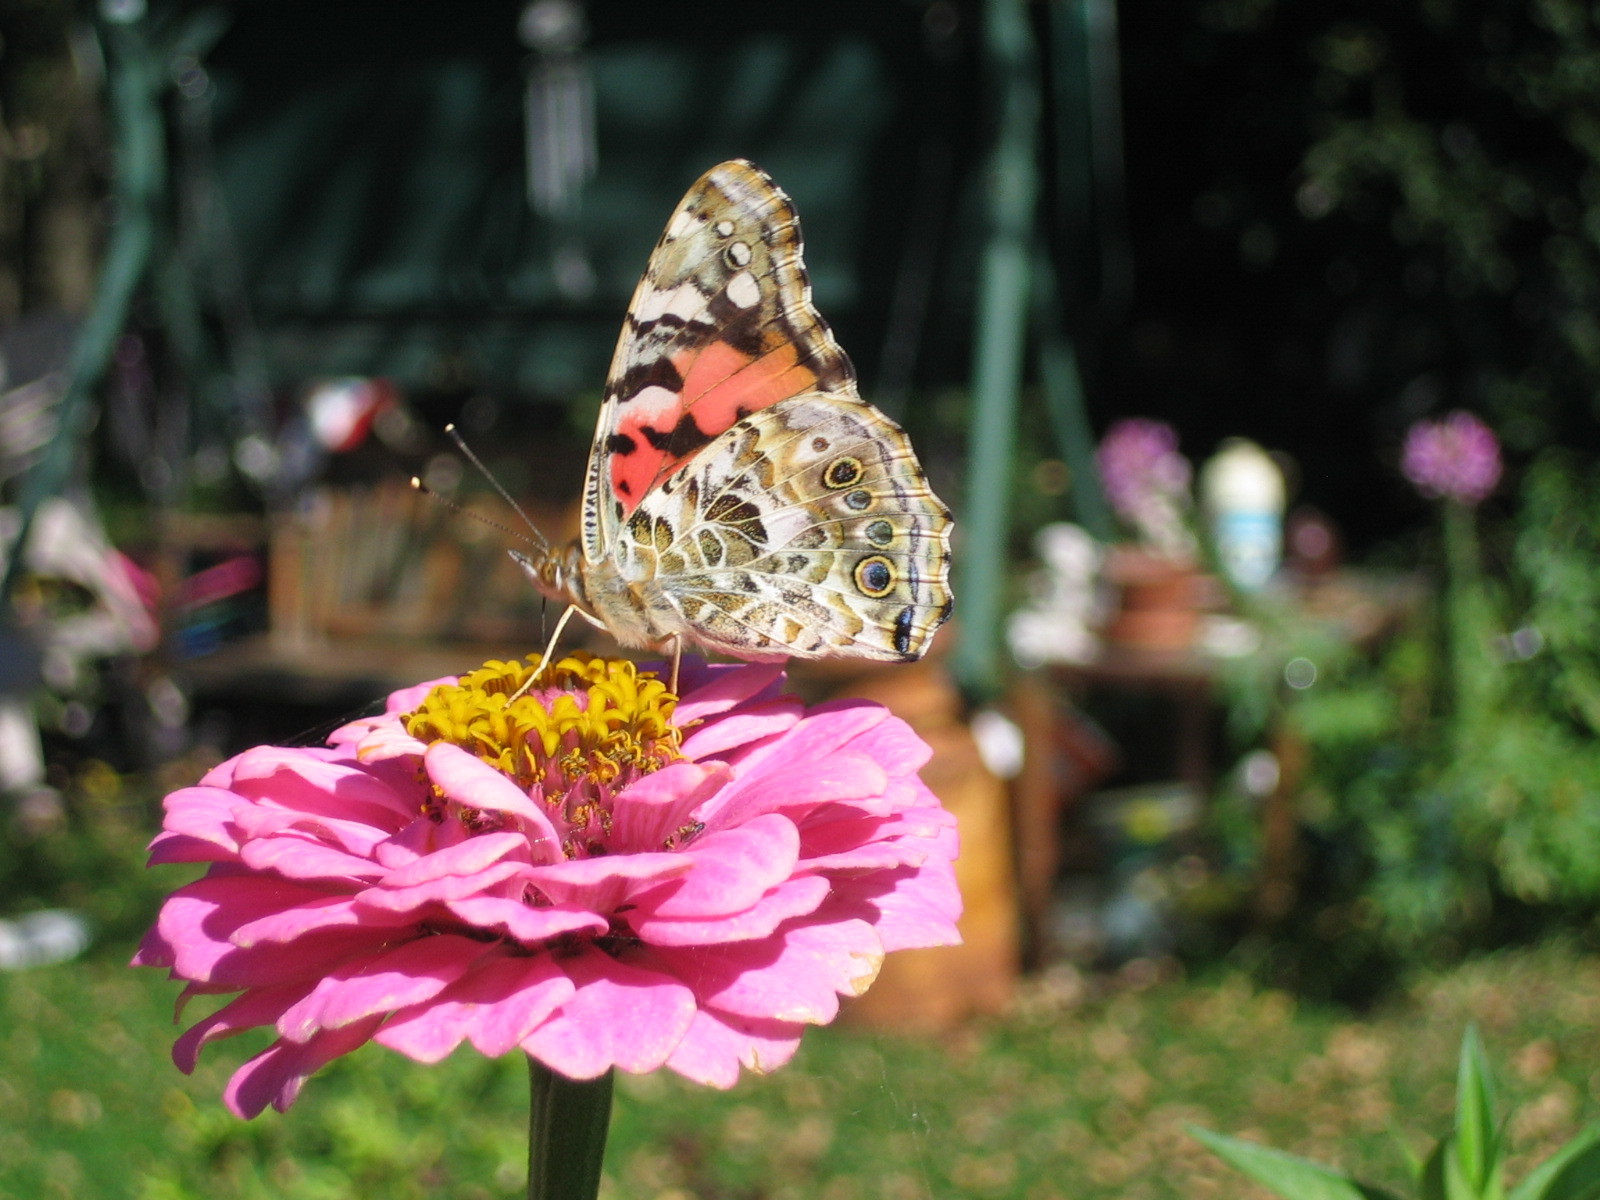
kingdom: Animalia
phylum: Arthropoda
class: Insecta
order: Lepidoptera
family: Nymphalidae
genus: Vanessa
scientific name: Vanessa cardui
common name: Painted lady
